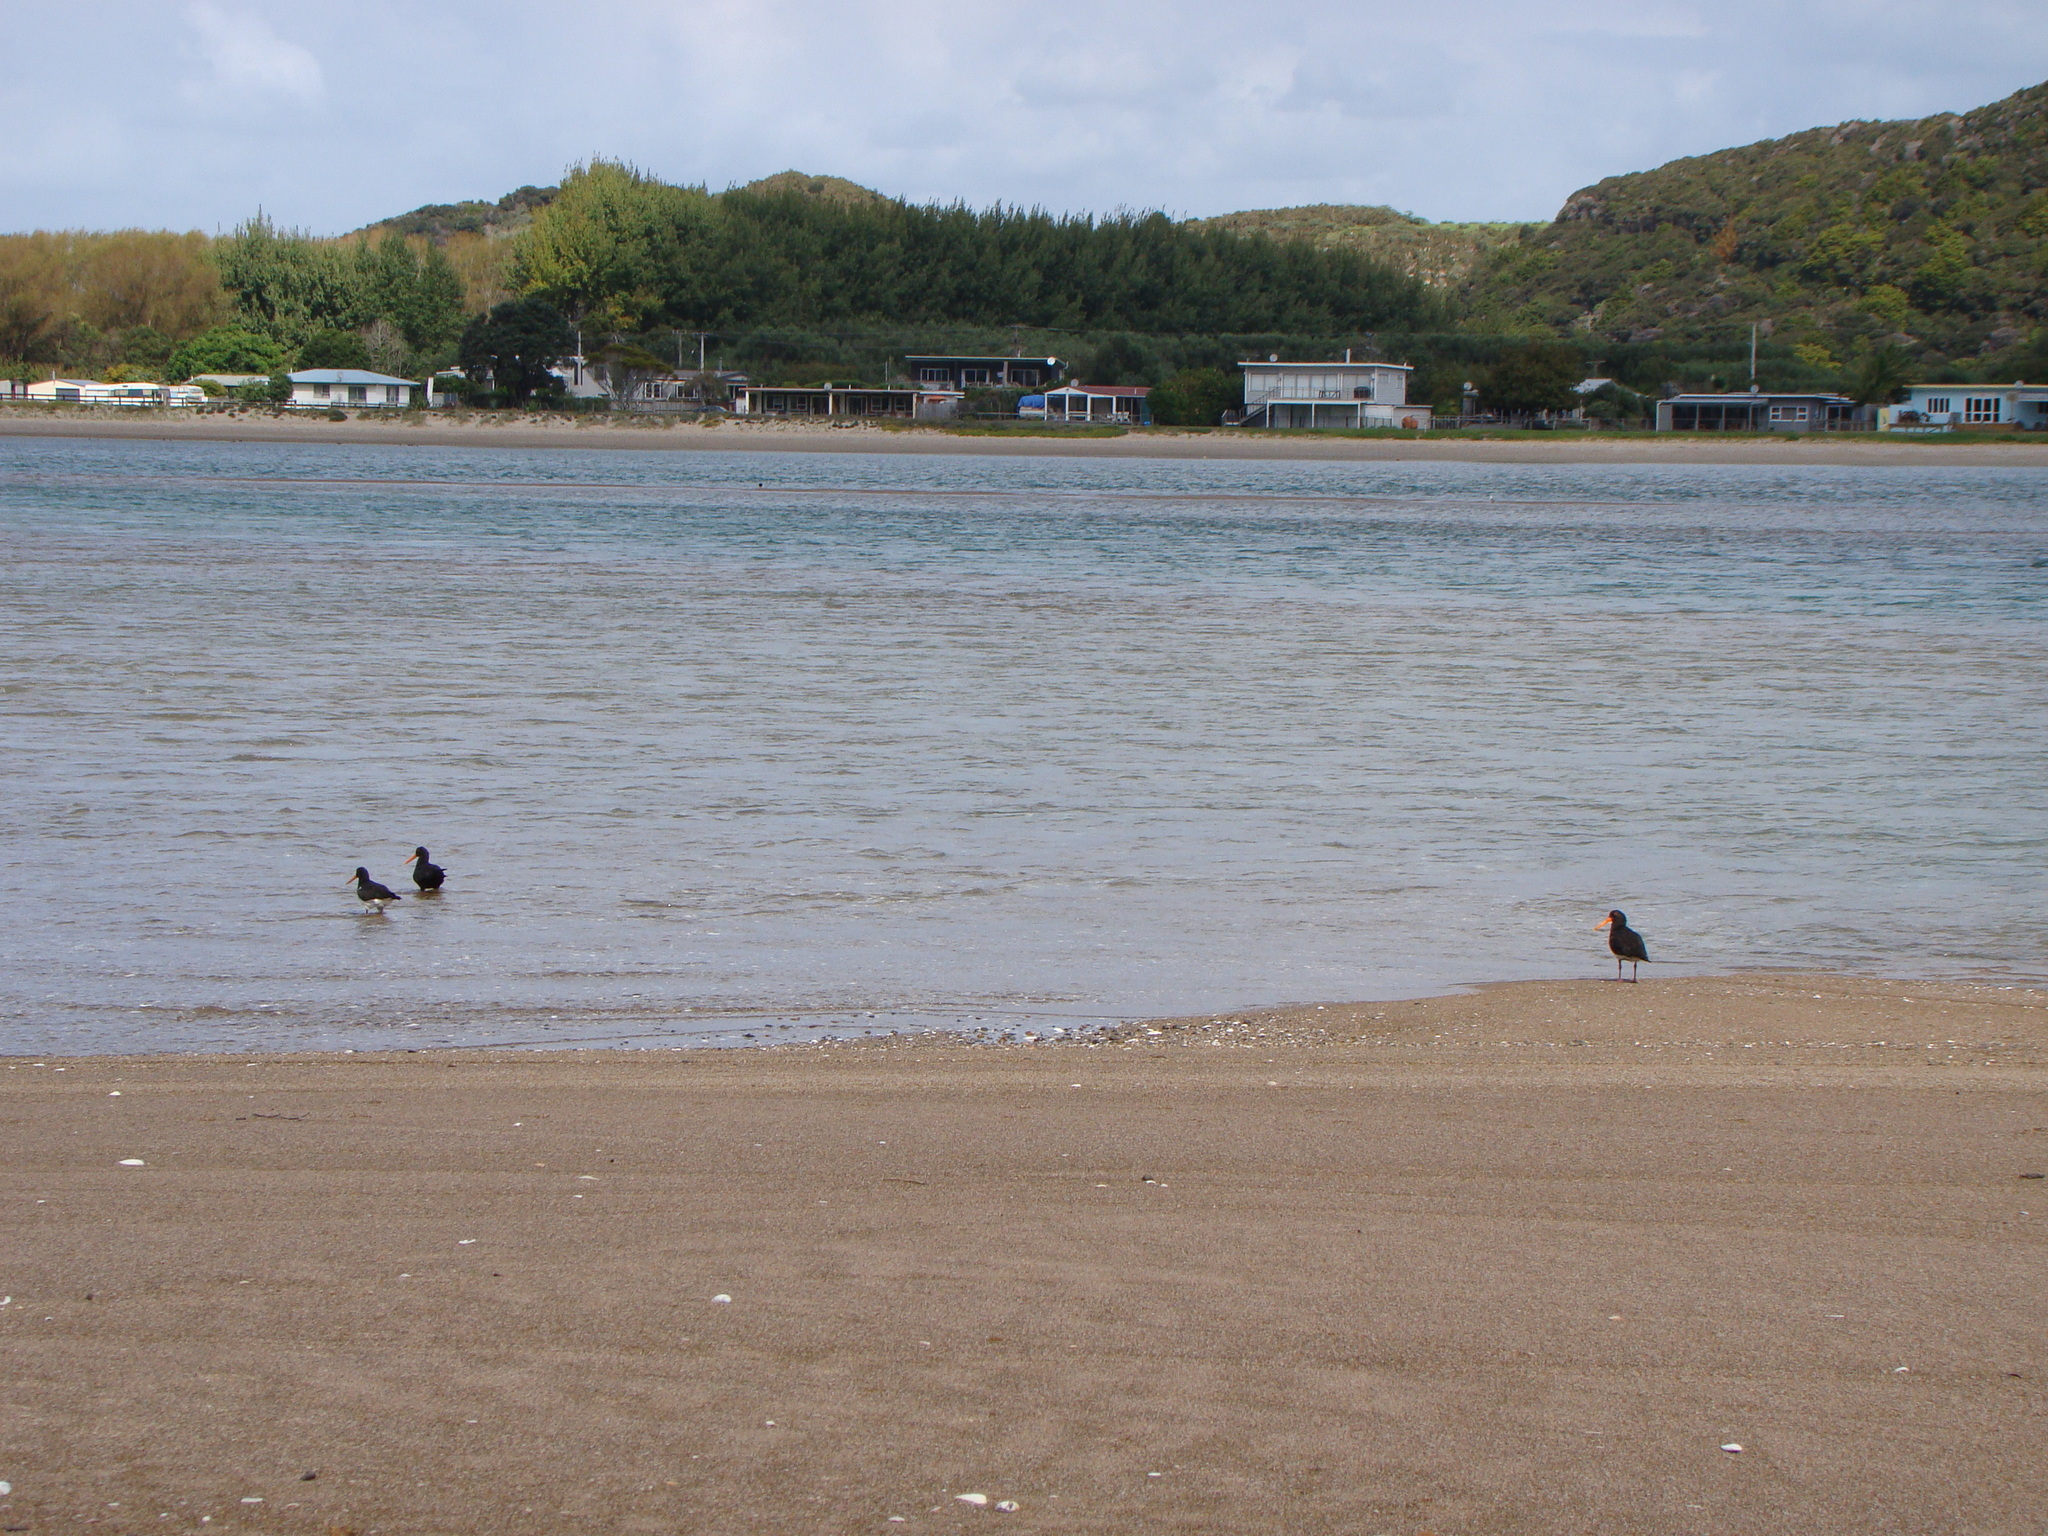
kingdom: Animalia
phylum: Chordata
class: Aves
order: Charadriiformes
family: Haematopodidae
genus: Haematopus
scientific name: Haematopus unicolor
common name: Variable oystercatcher
